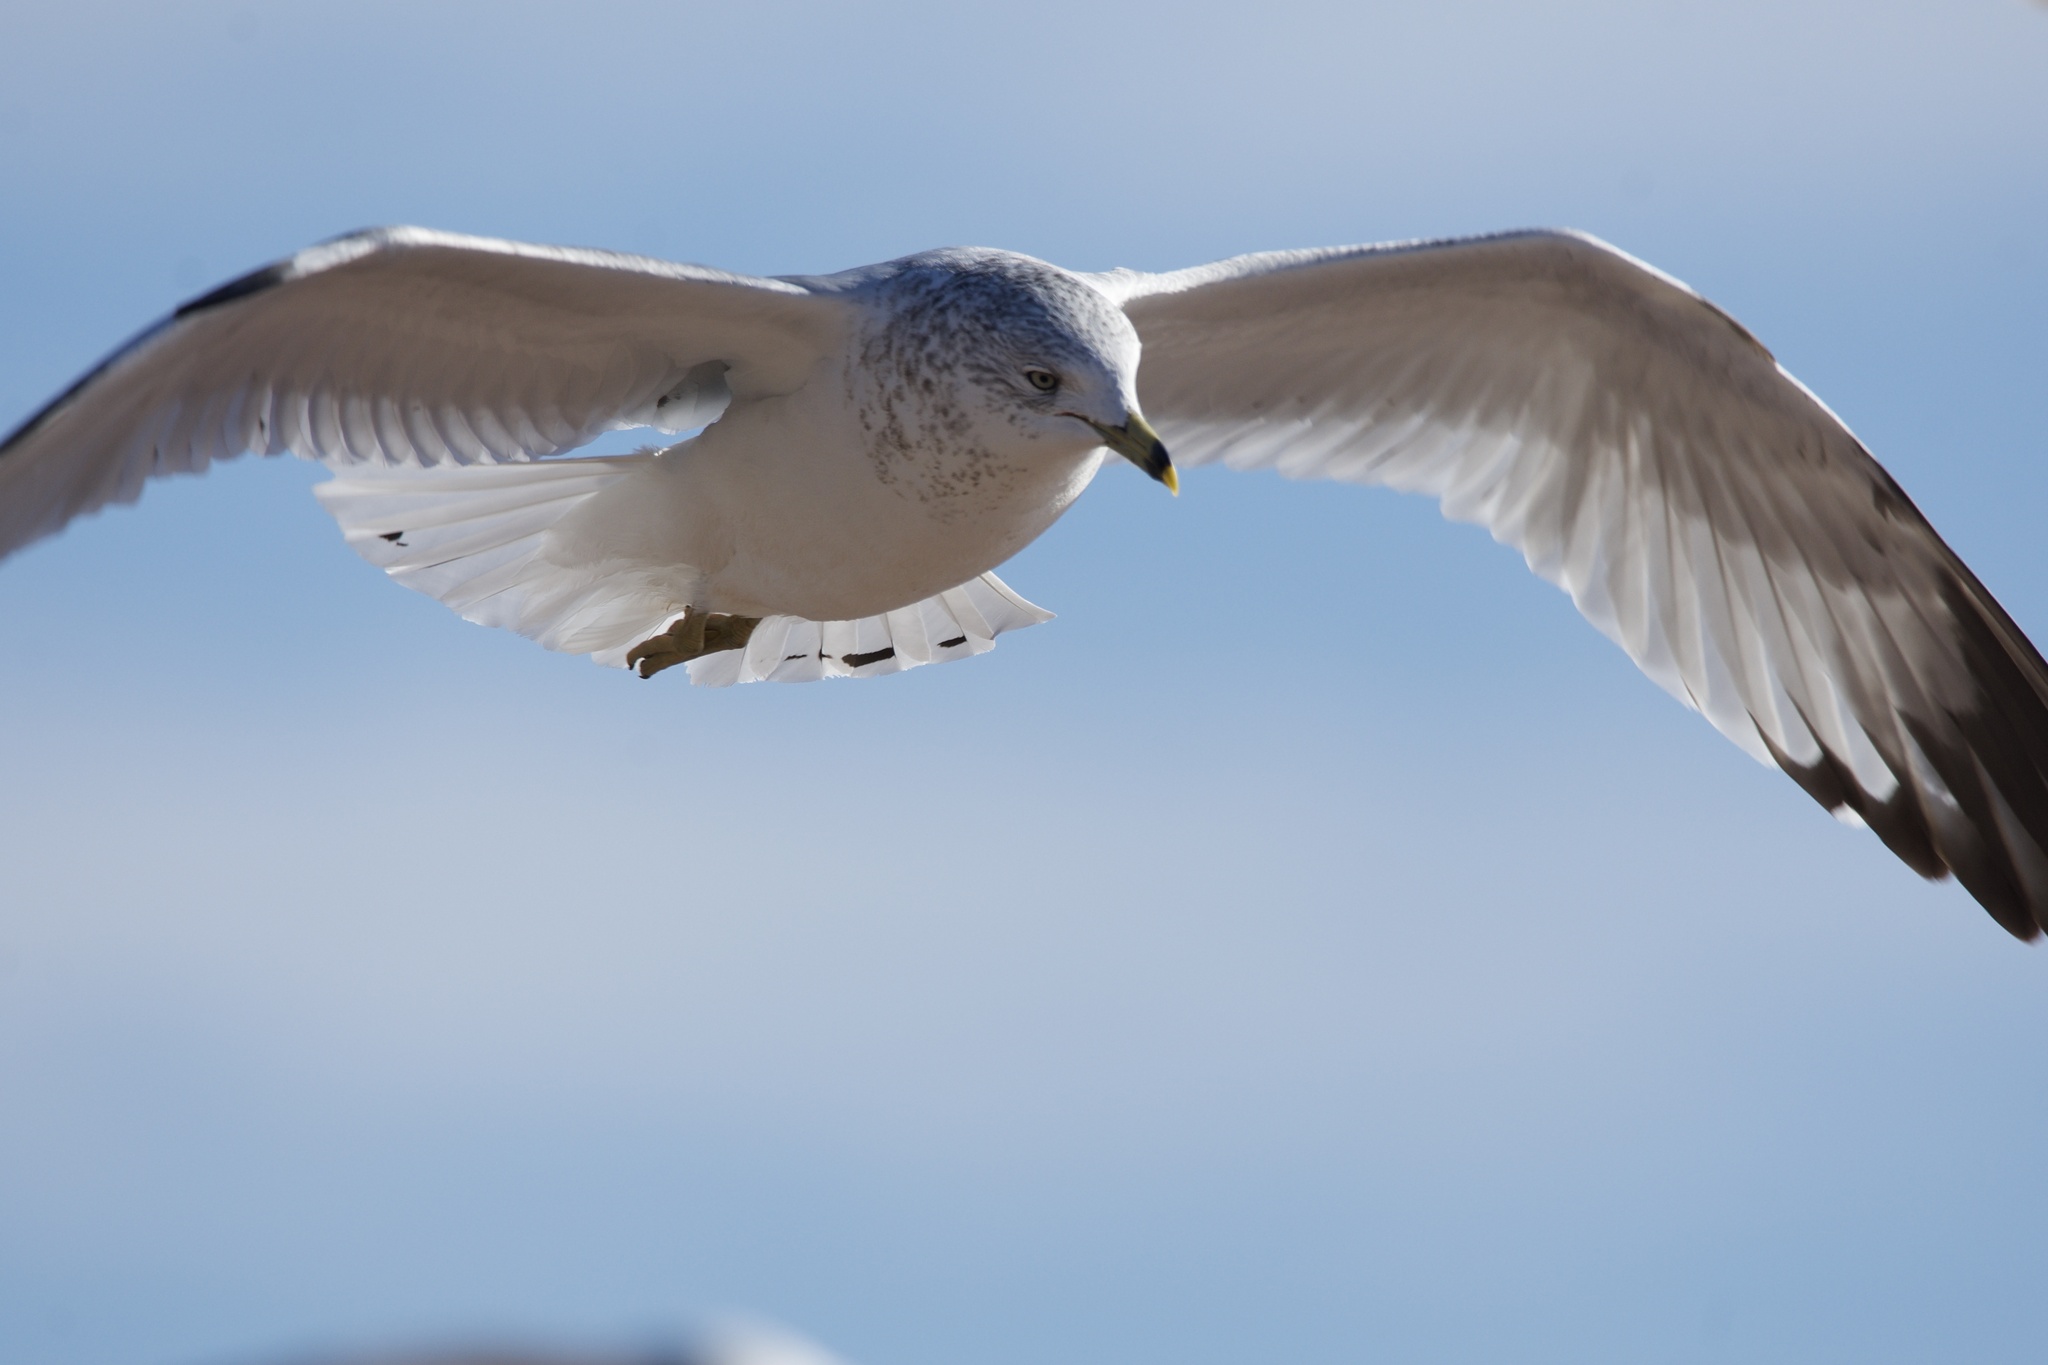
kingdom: Animalia
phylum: Chordata
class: Aves
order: Charadriiformes
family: Laridae
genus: Larus
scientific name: Larus delawarensis
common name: Ring-billed gull
